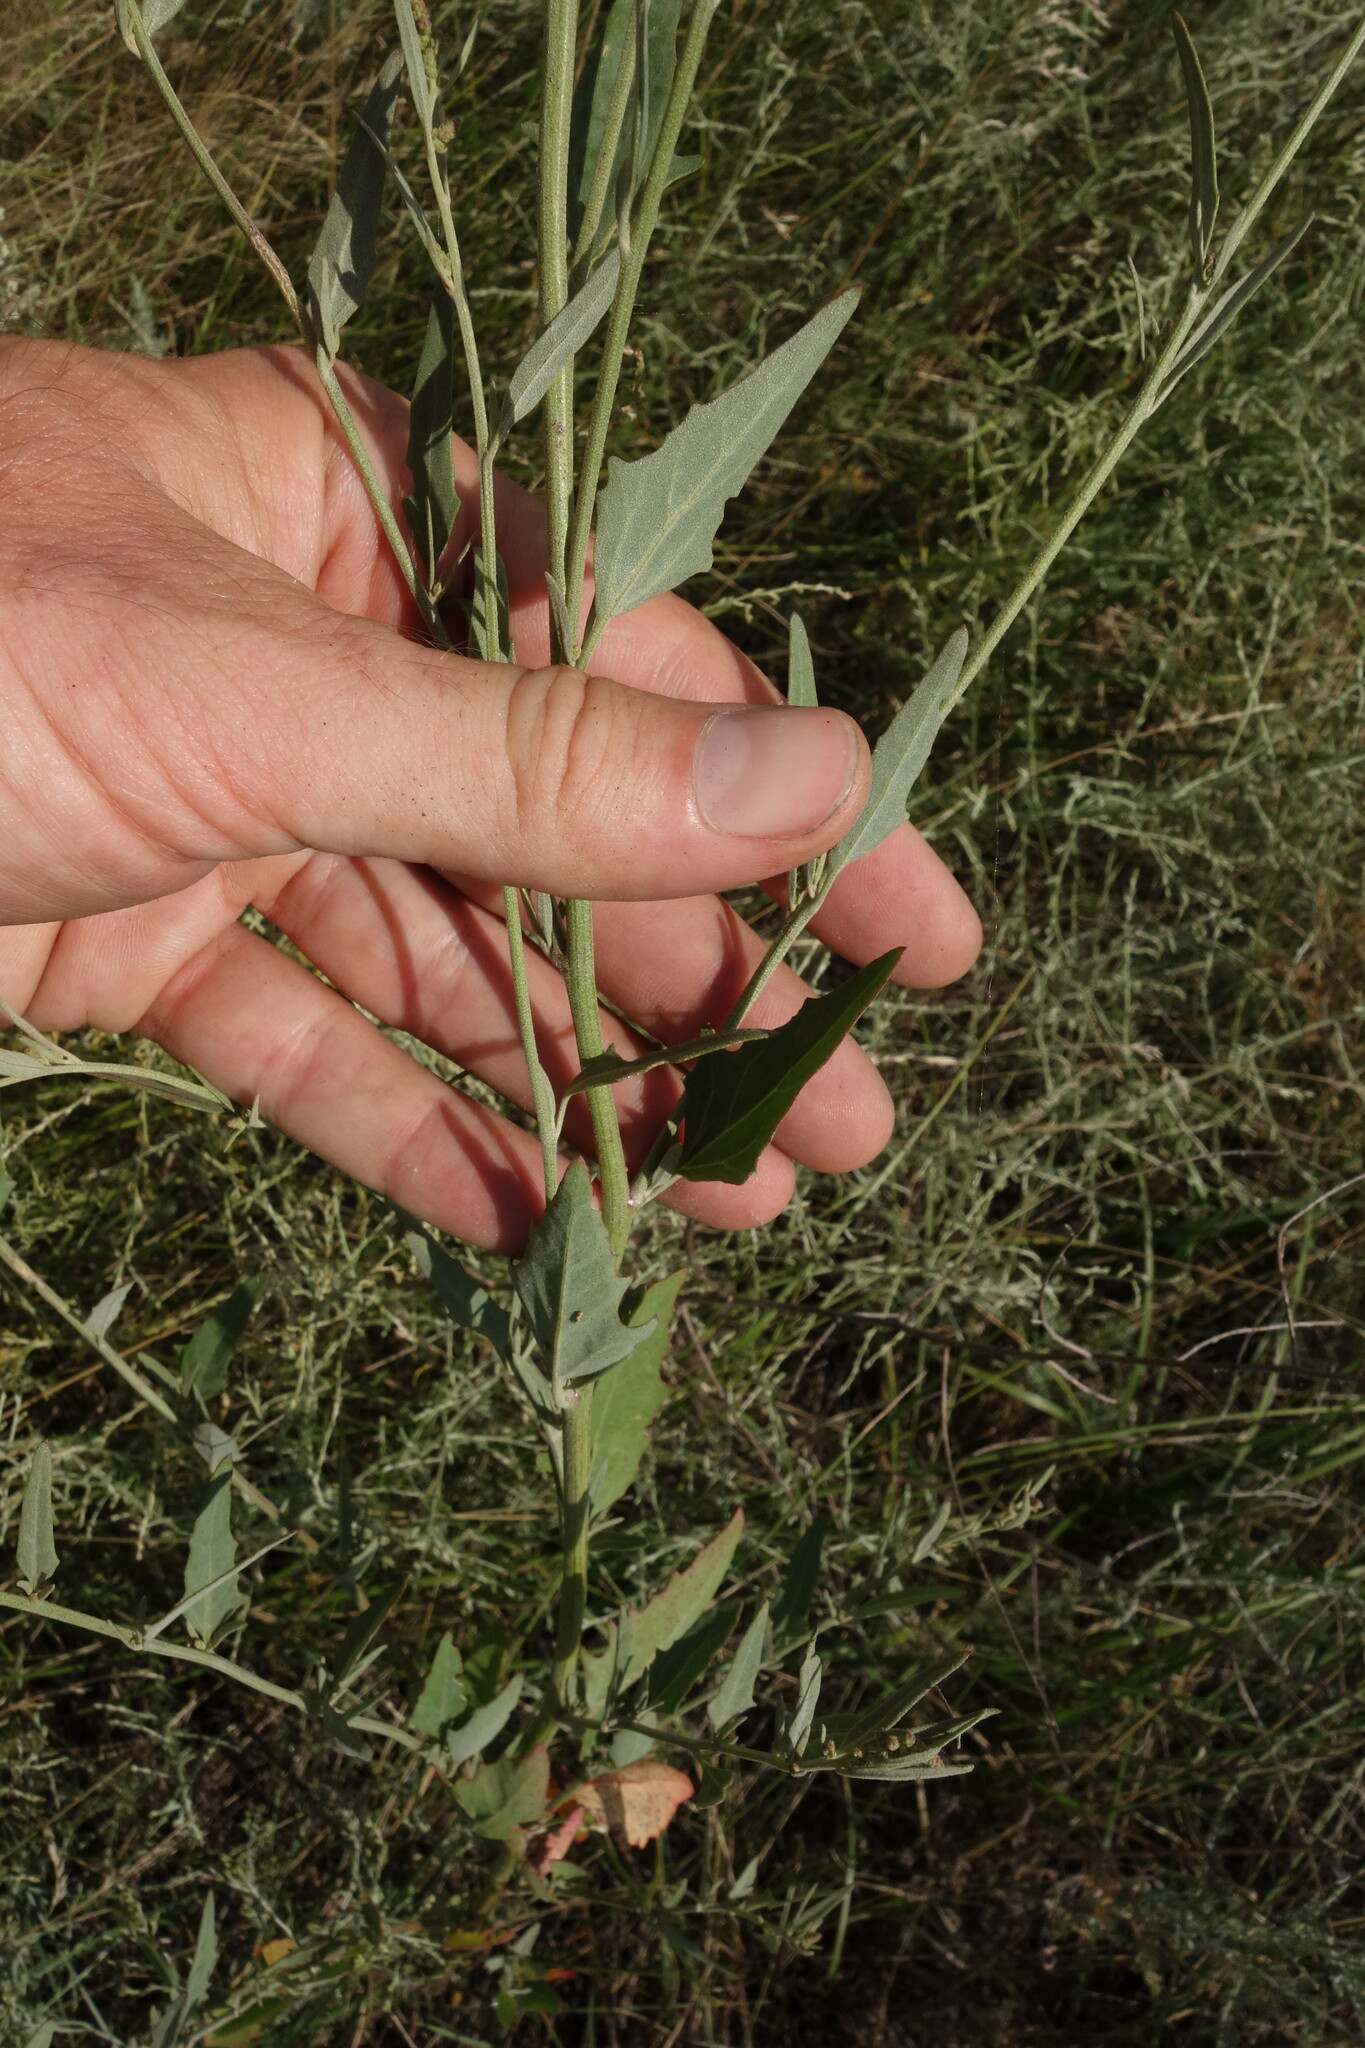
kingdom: Plantae
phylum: Tracheophyta
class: Magnoliopsida
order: Caryophyllales
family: Amaranthaceae
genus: Atriplex
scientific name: Atriplex oblongifolia
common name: Oblongleaf orache
